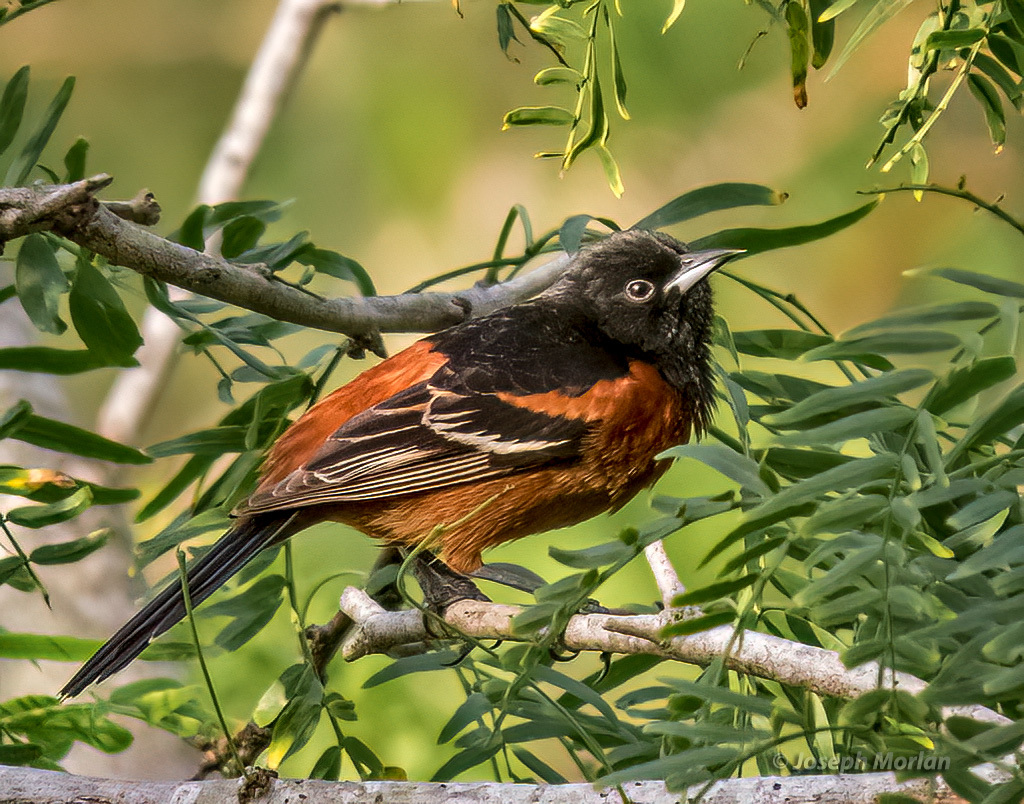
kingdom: Animalia
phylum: Chordata
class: Aves
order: Passeriformes
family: Icteridae
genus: Icterus
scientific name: Icterus spurius
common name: Orchard oriole
